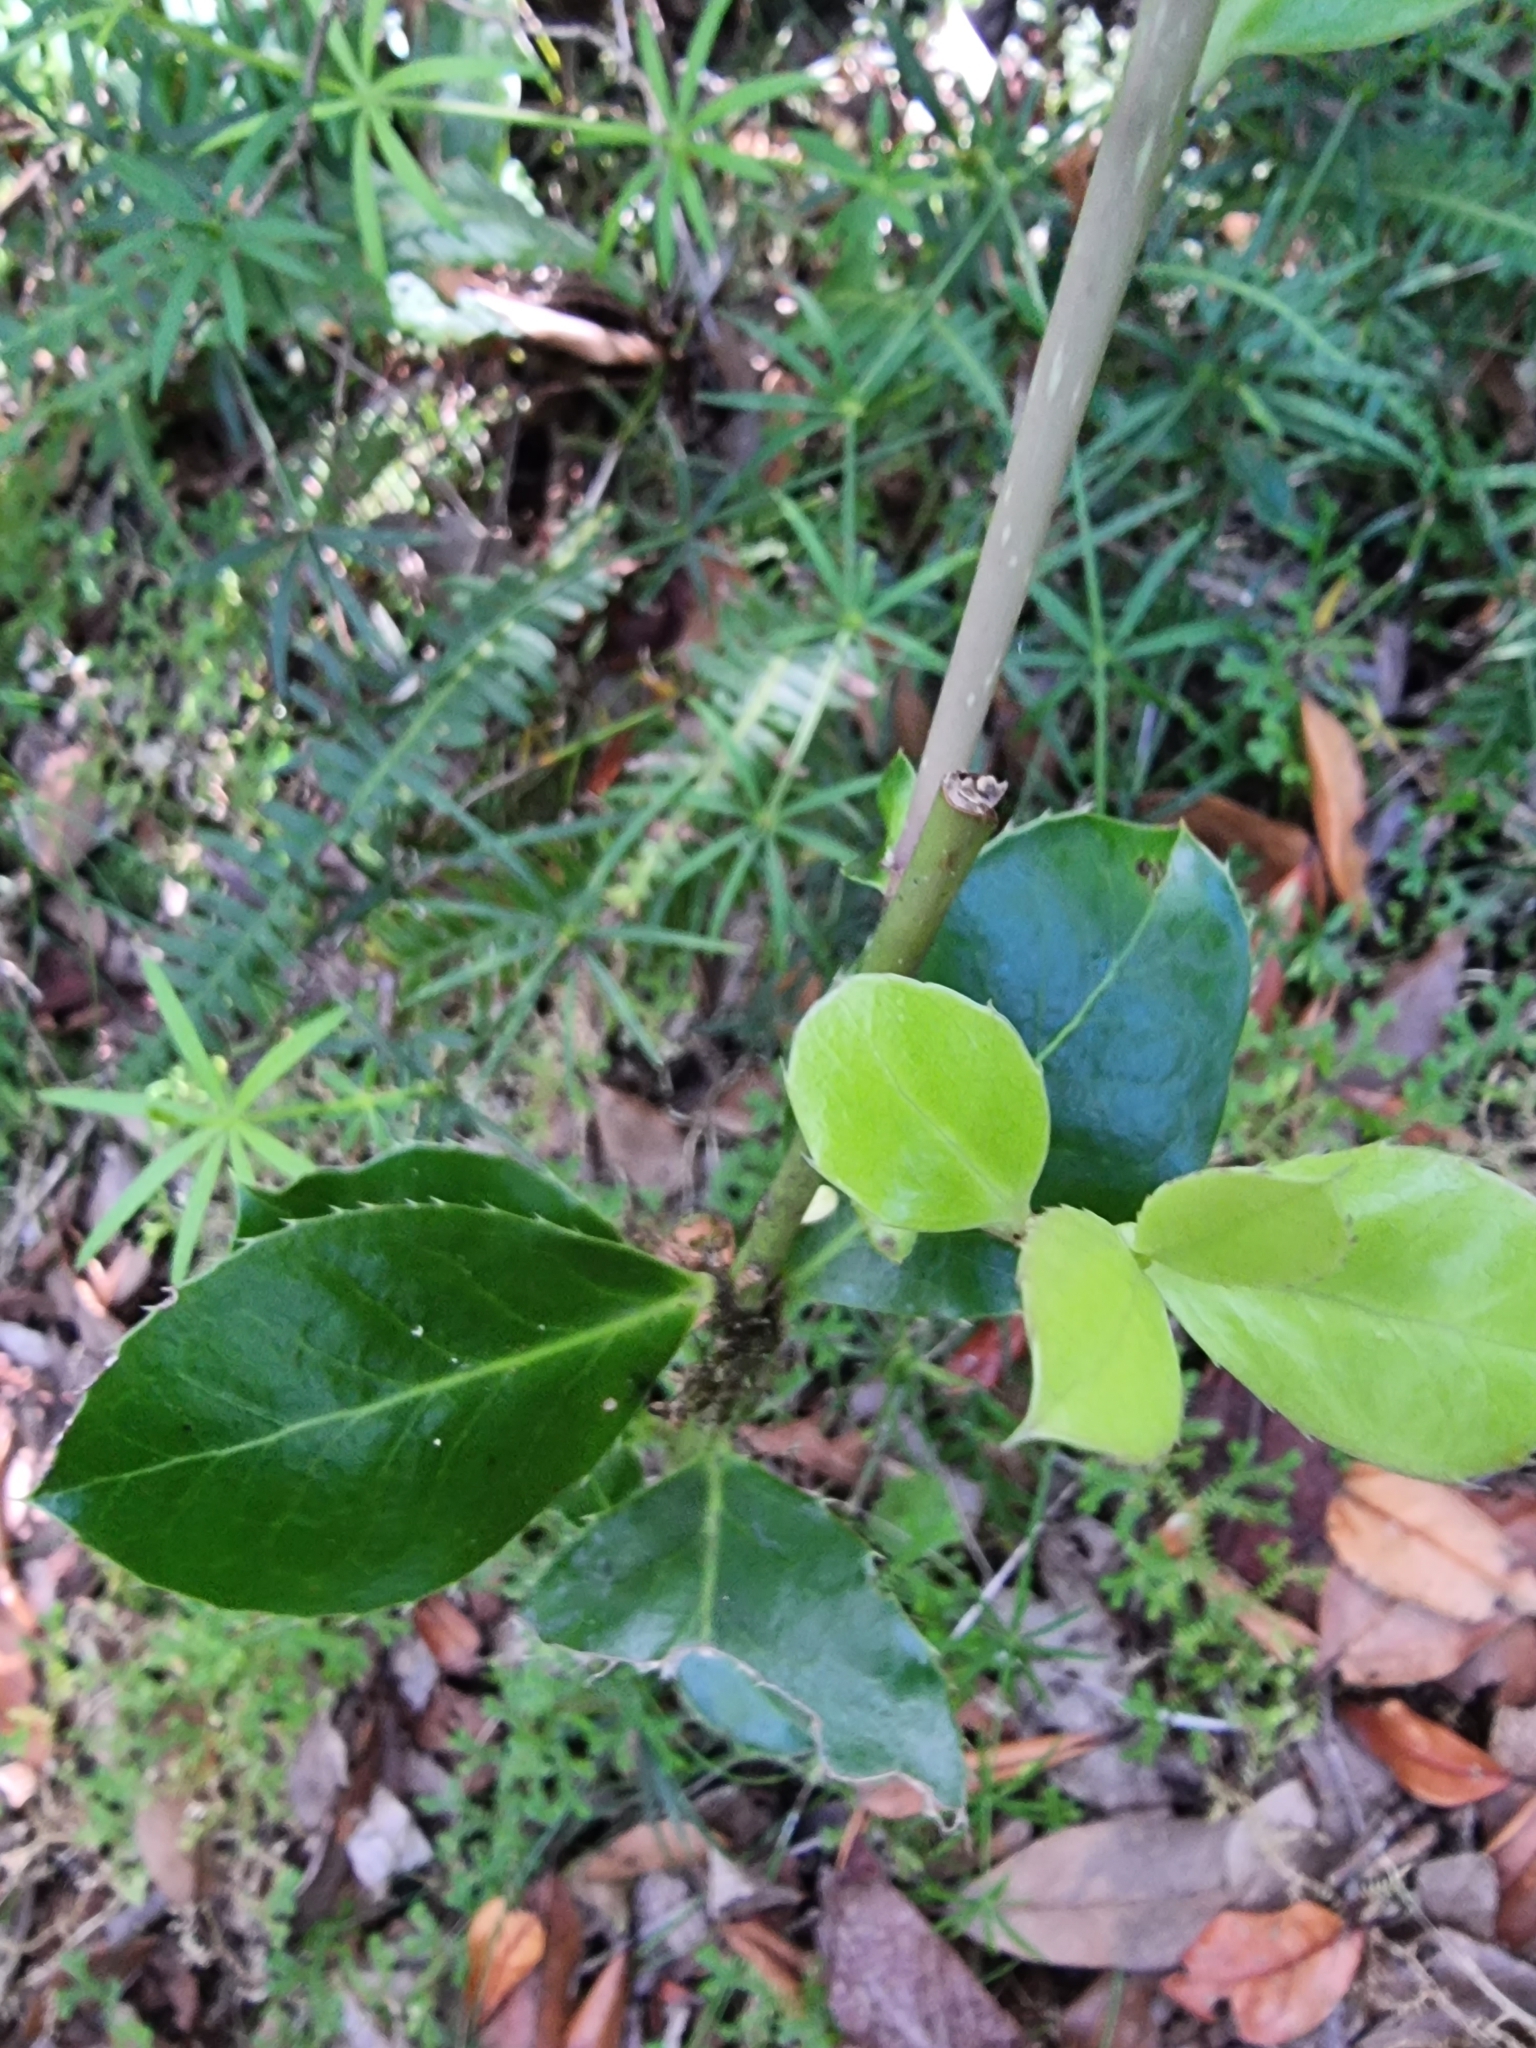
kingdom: Plantae
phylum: Tracheophyta
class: Magnoliopsida
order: Aquifoliales
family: Aquifoliaceae
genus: Ilex
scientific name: Ilex perado
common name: Madeira holly
